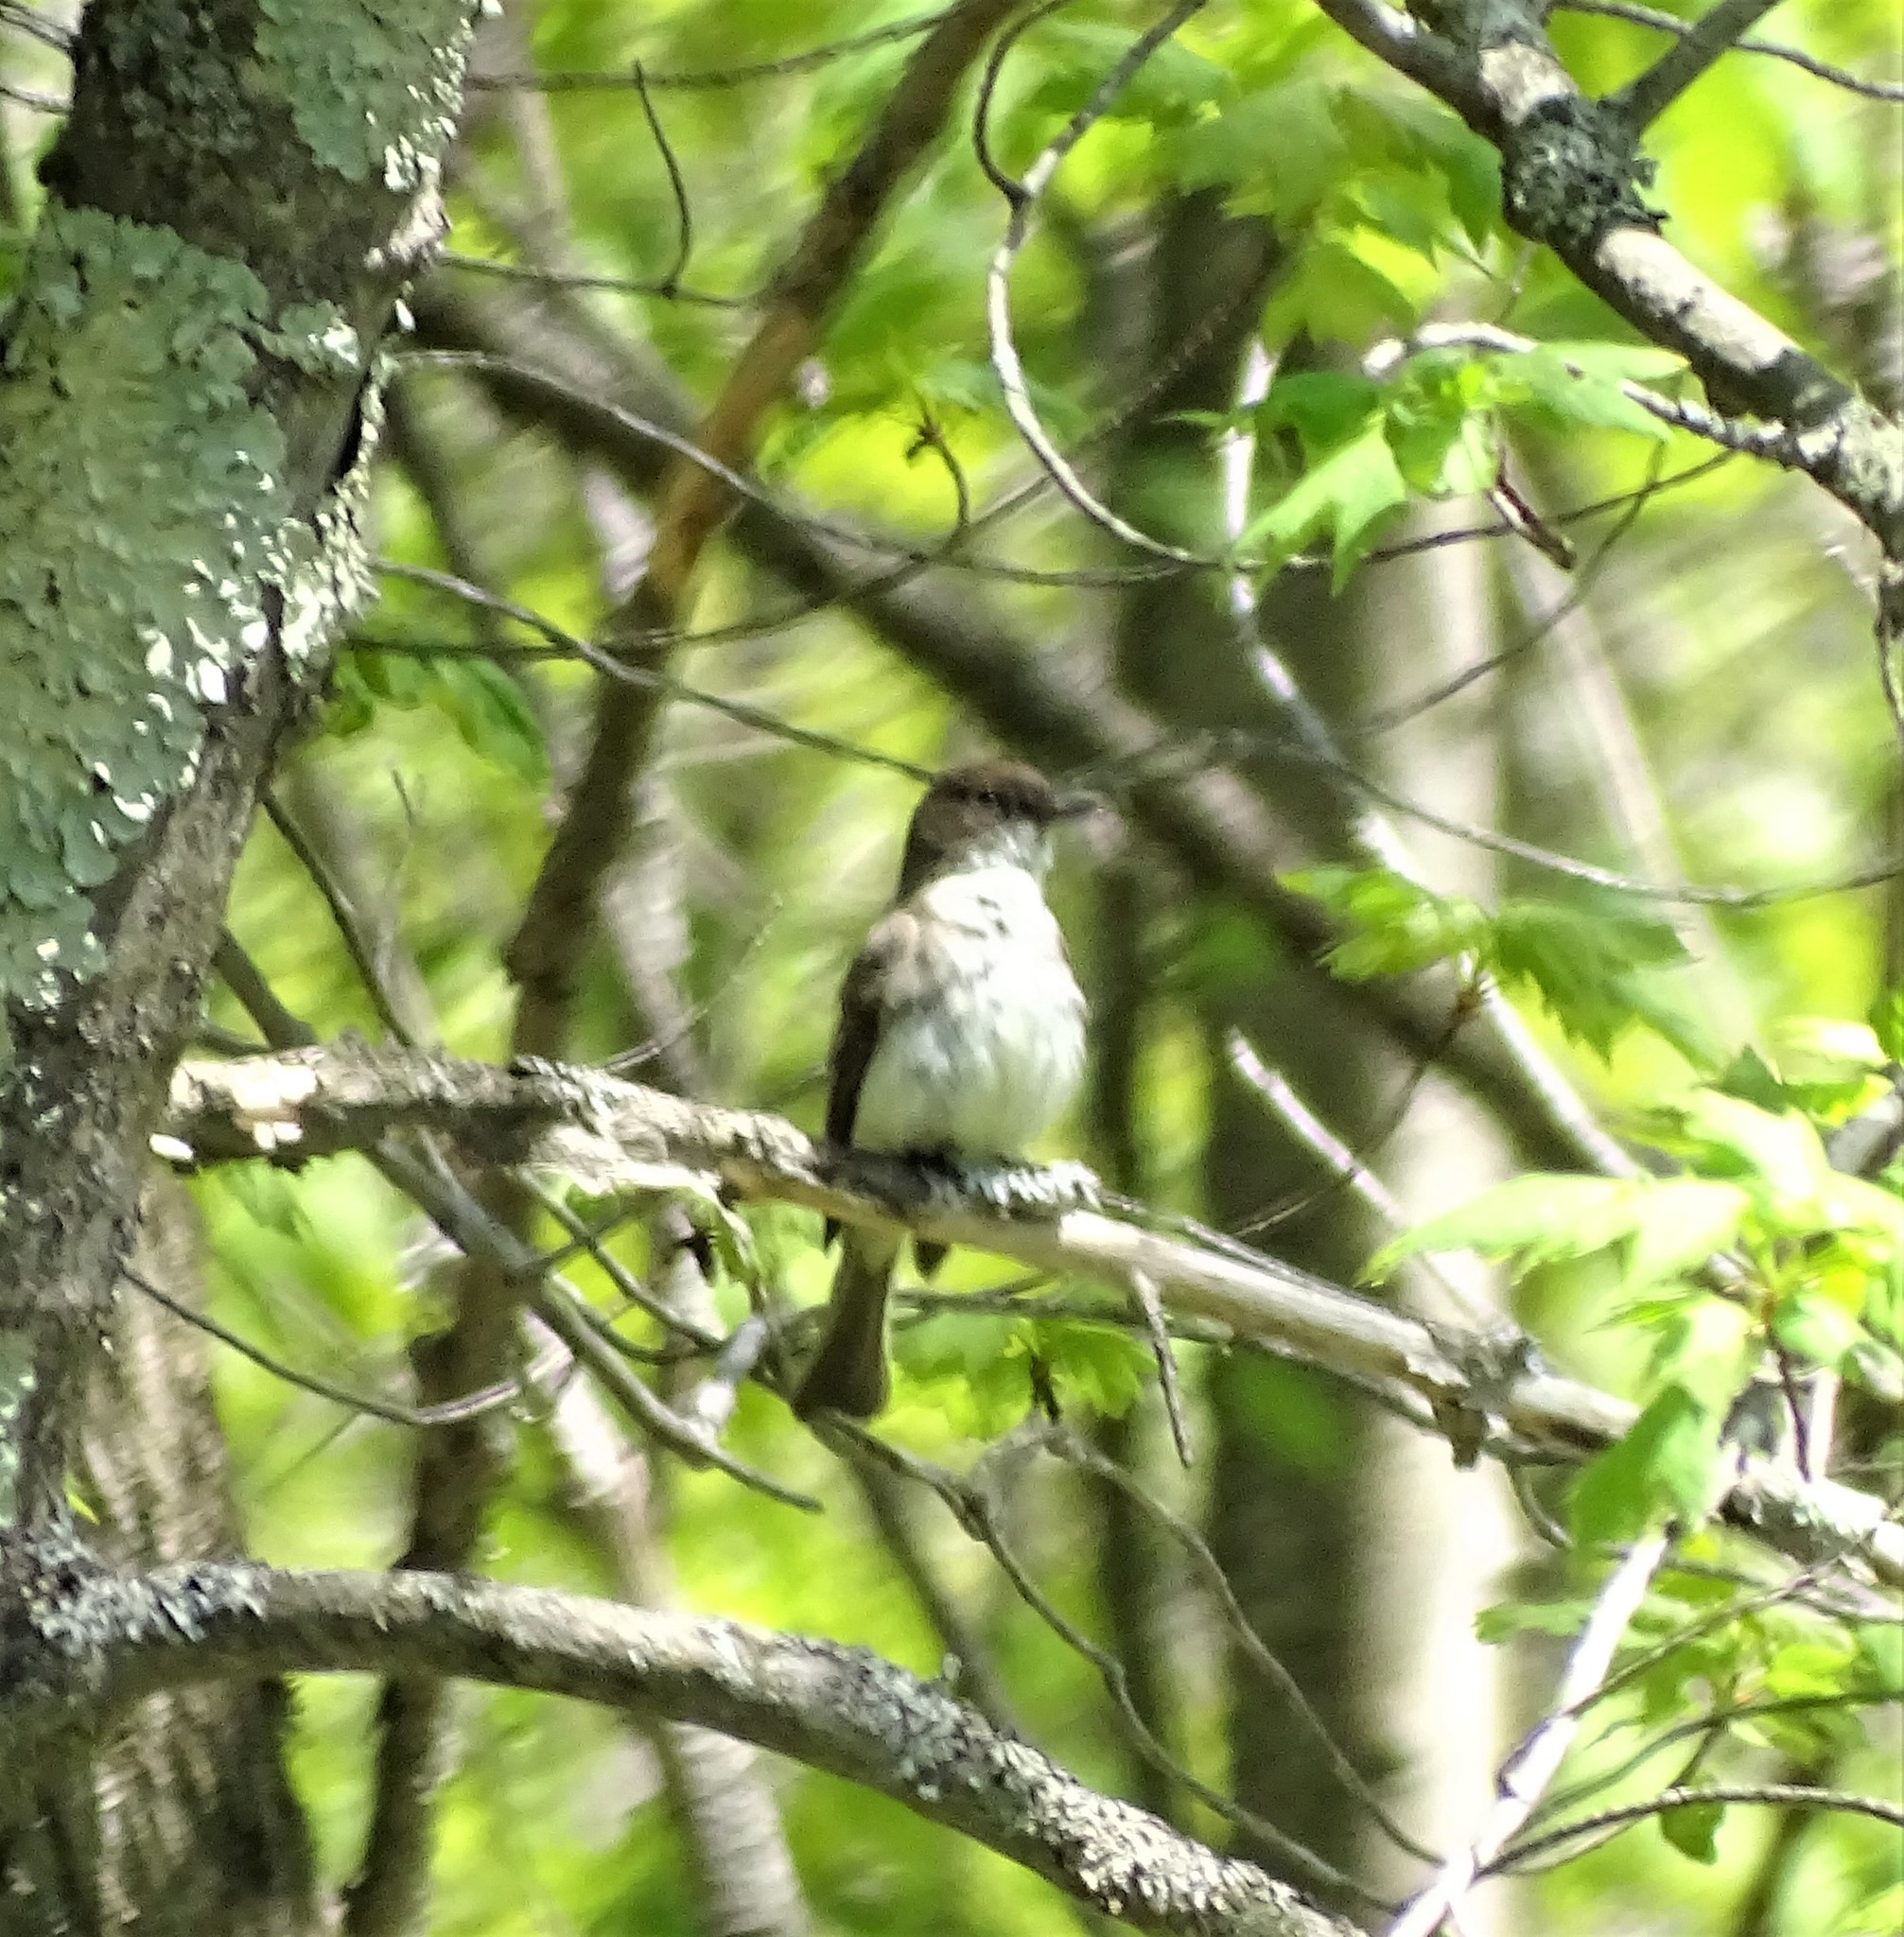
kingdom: Animalia
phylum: Chordata
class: Aves
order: Passeriformes
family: Tyrannidae
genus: Sayornis
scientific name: Sayornis phoebe
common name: Eastern phoebe
